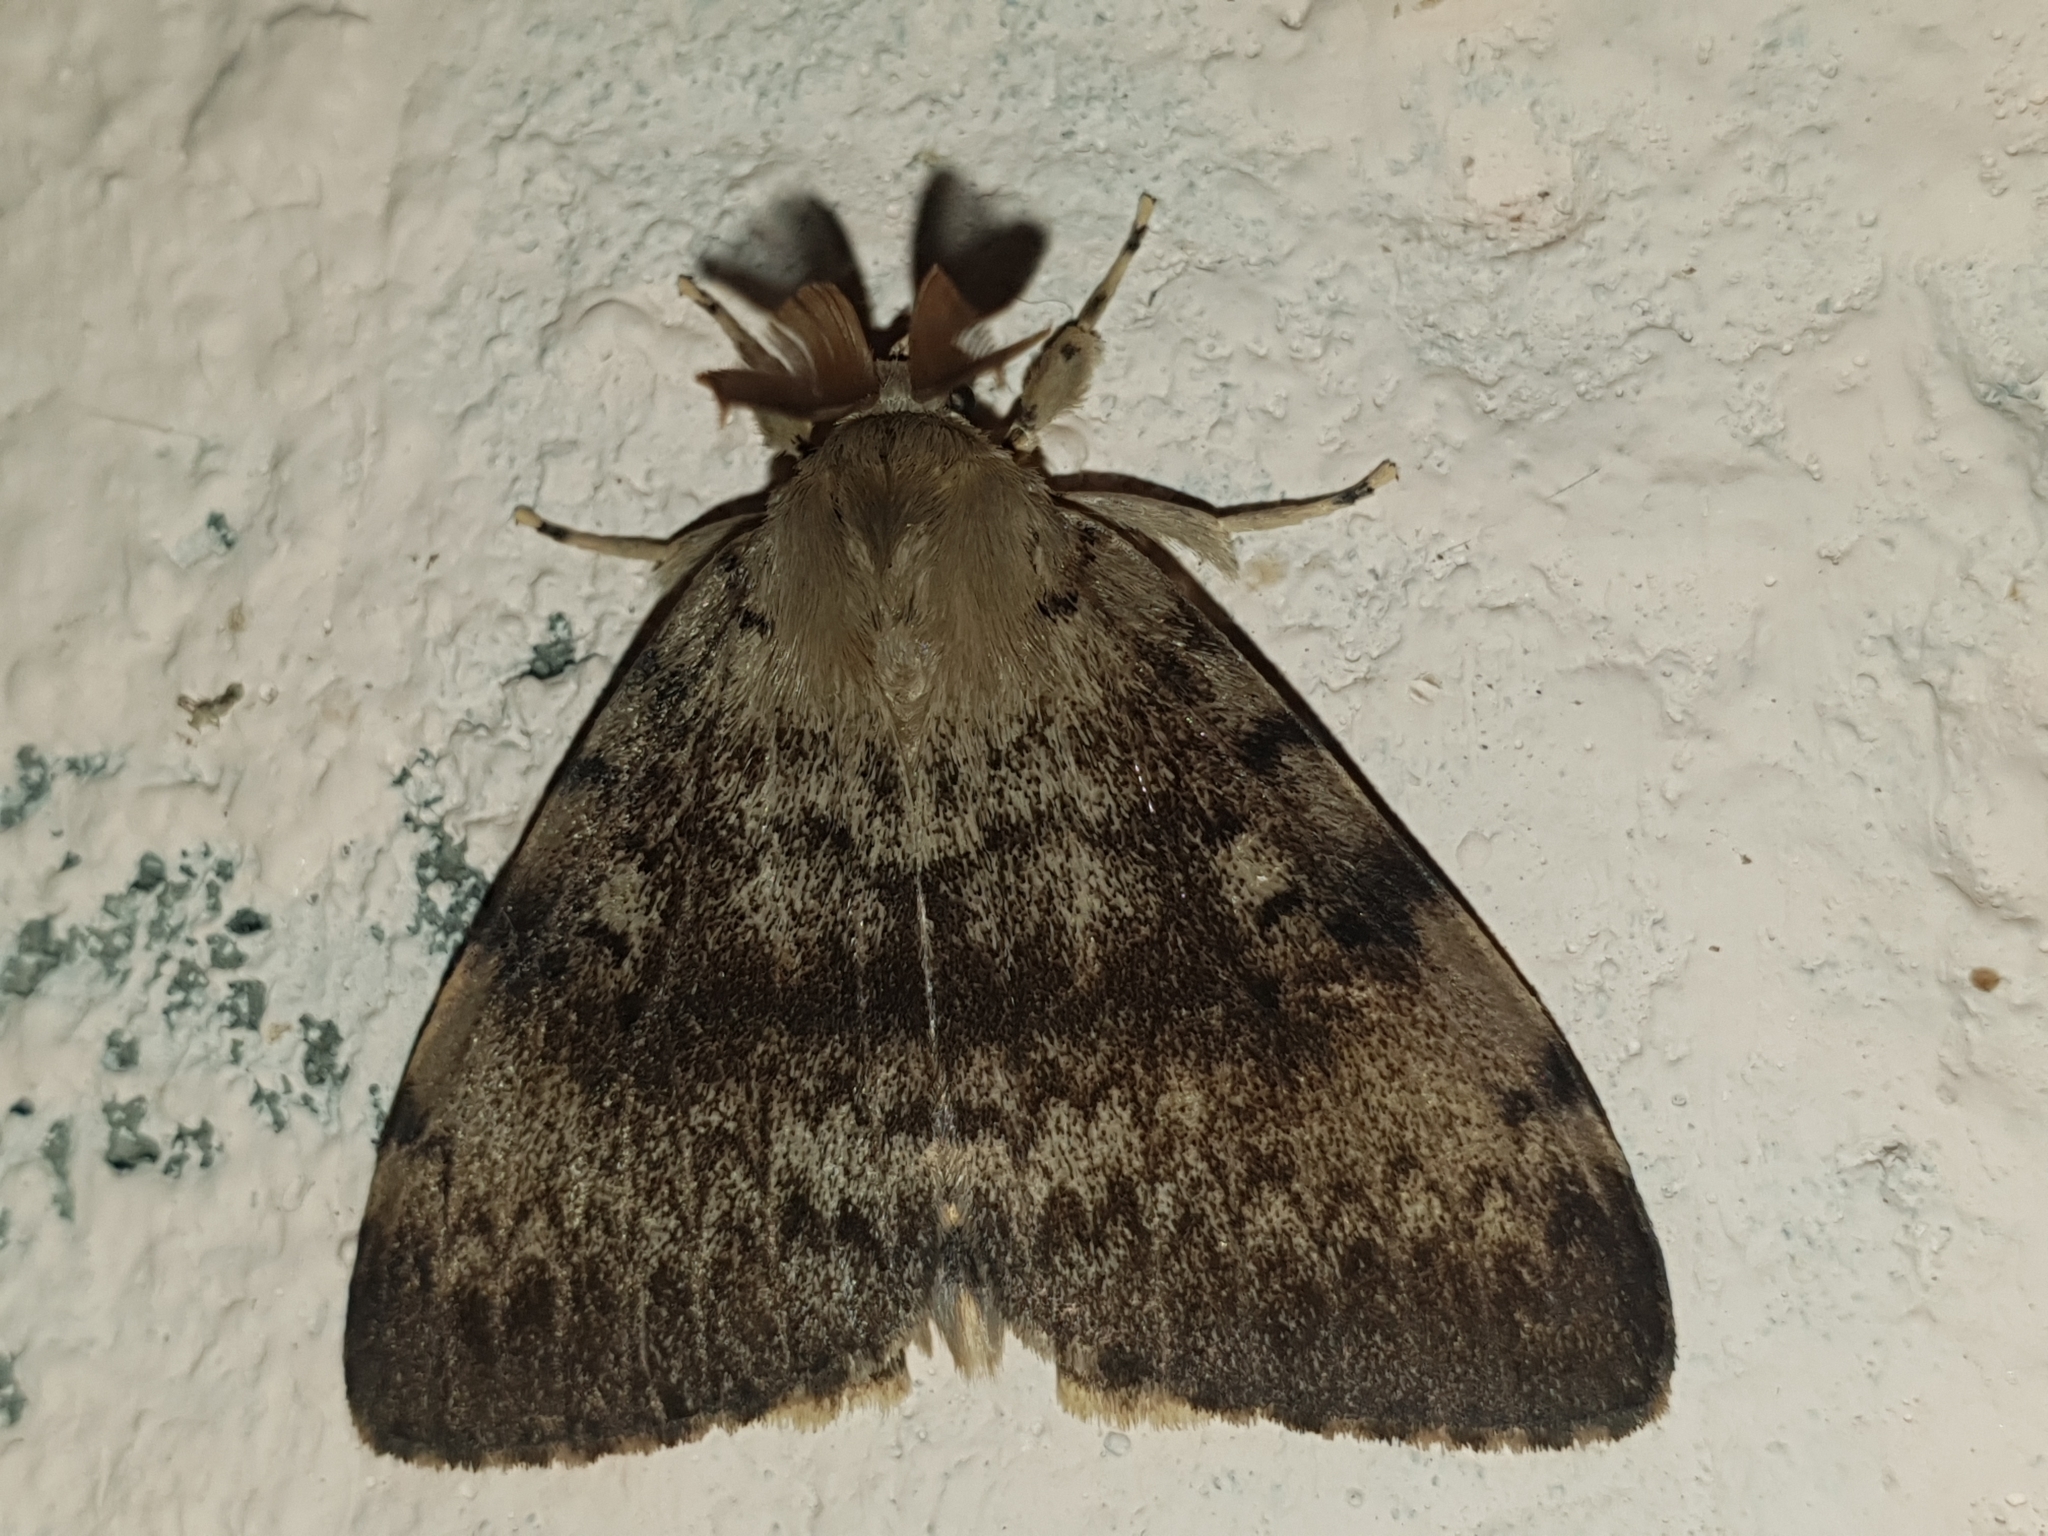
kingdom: Animalia
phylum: Arthropoda
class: Insecta
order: Lepidoptera
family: Erebidae
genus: Lymantria
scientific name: Lymantria dispar
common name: Gypsy moth
